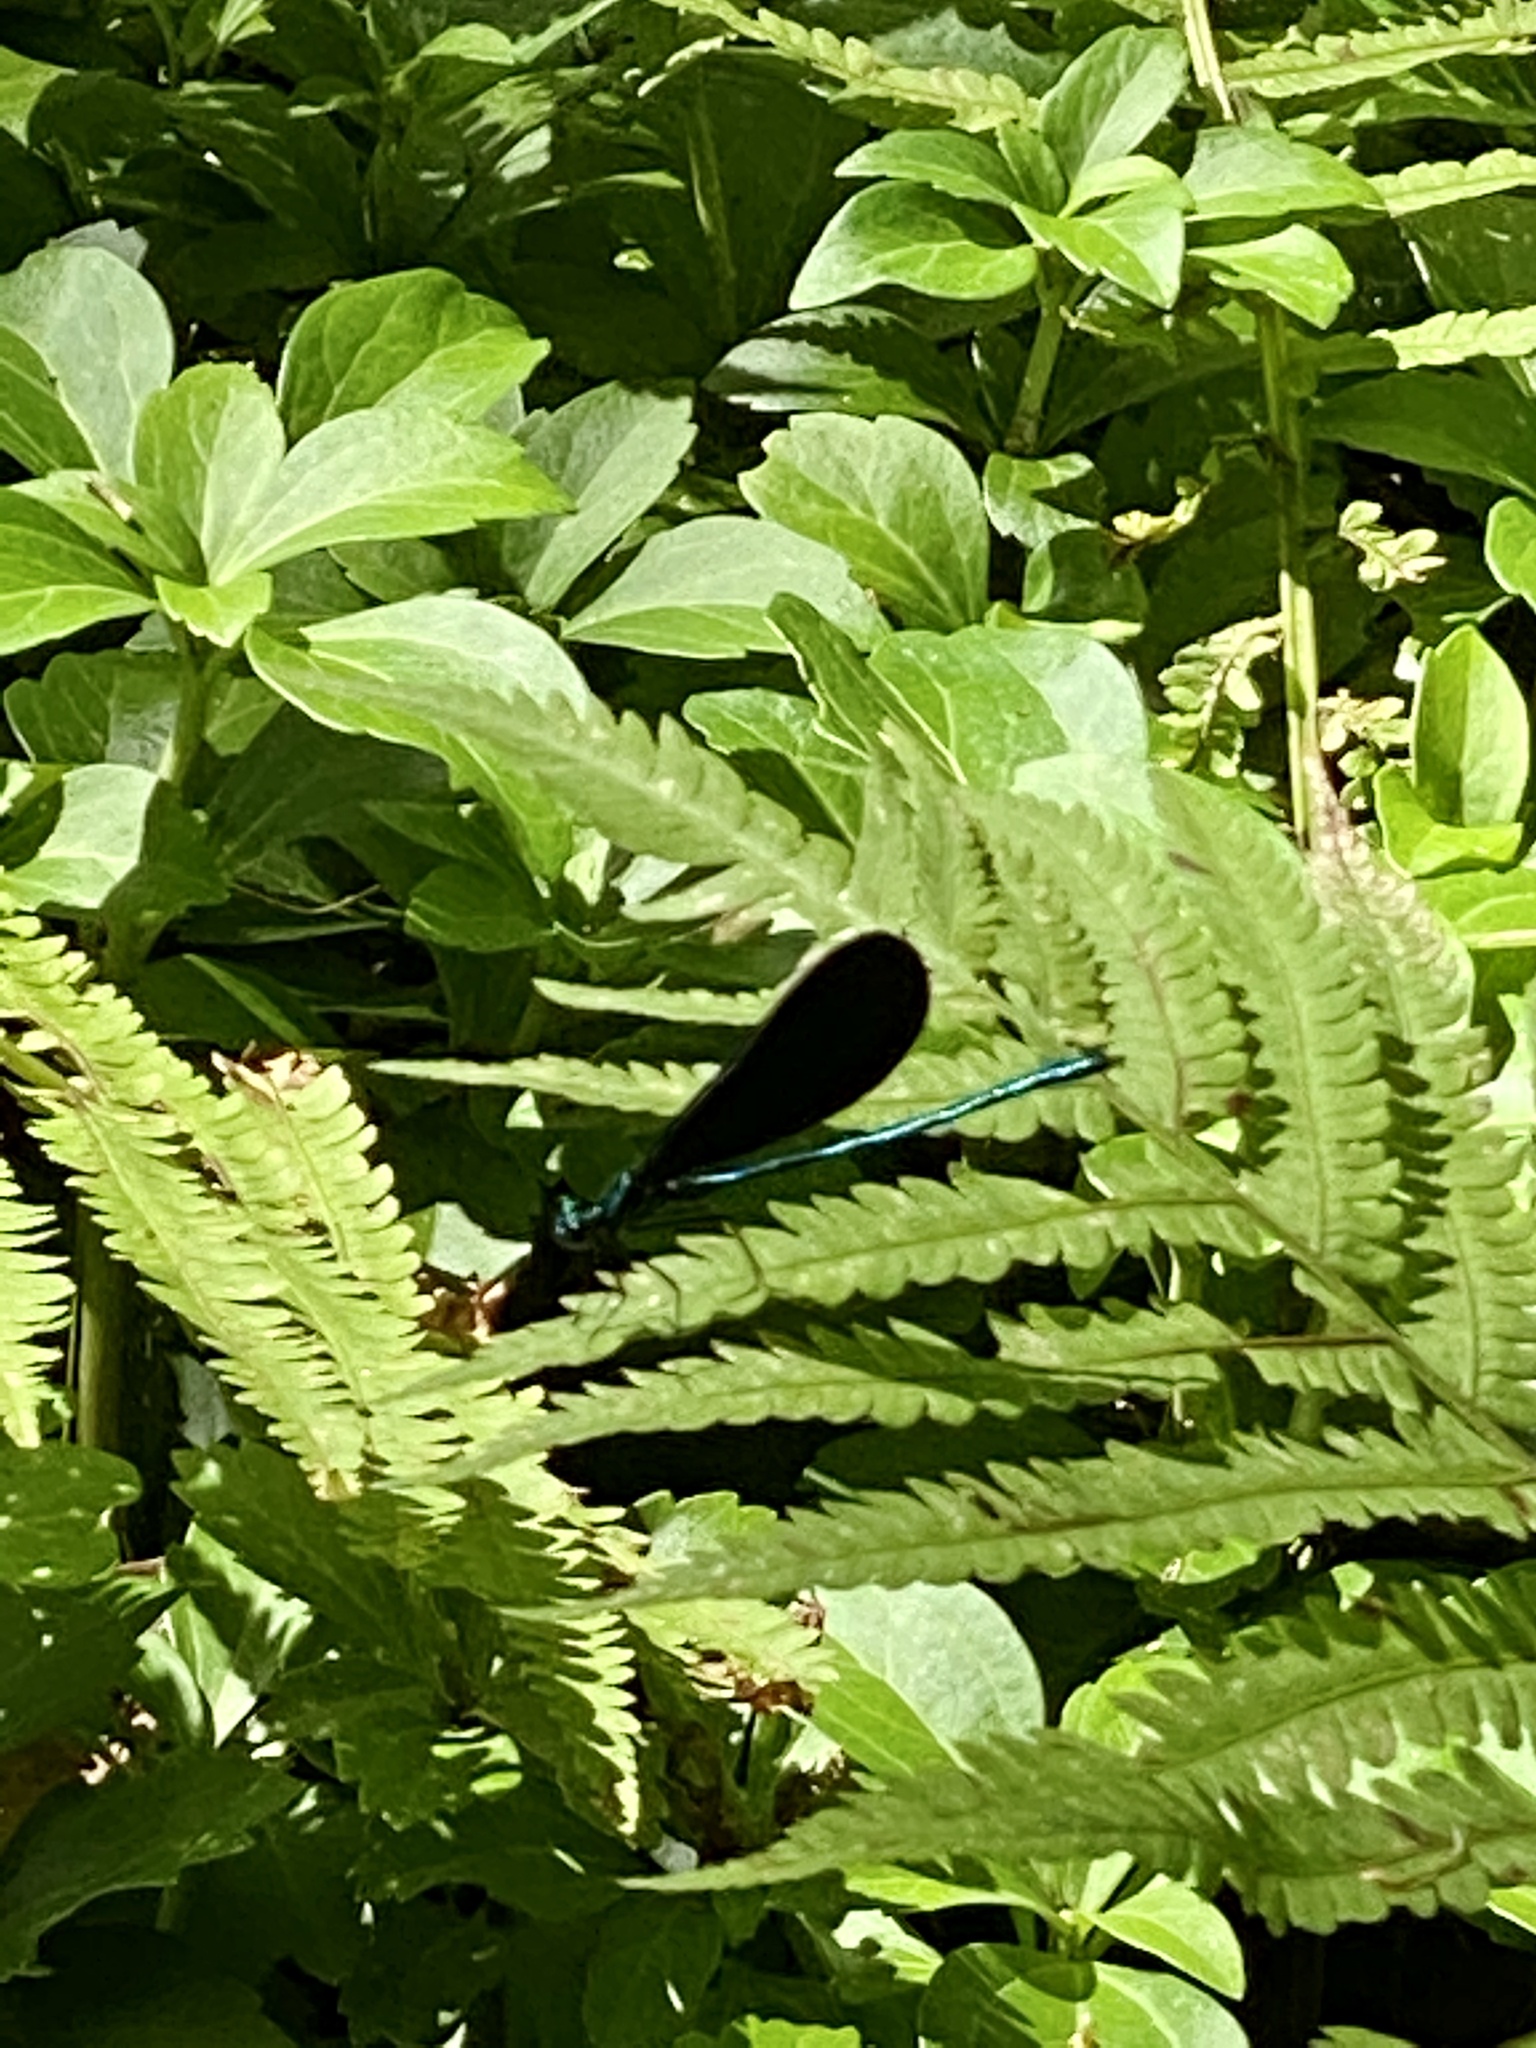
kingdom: Animalia
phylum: Arthropoda
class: Insecta
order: Odonata
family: Calopterygidae
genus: Calopteryx
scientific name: Calopteryx maculata
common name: Ebony jewelwing
